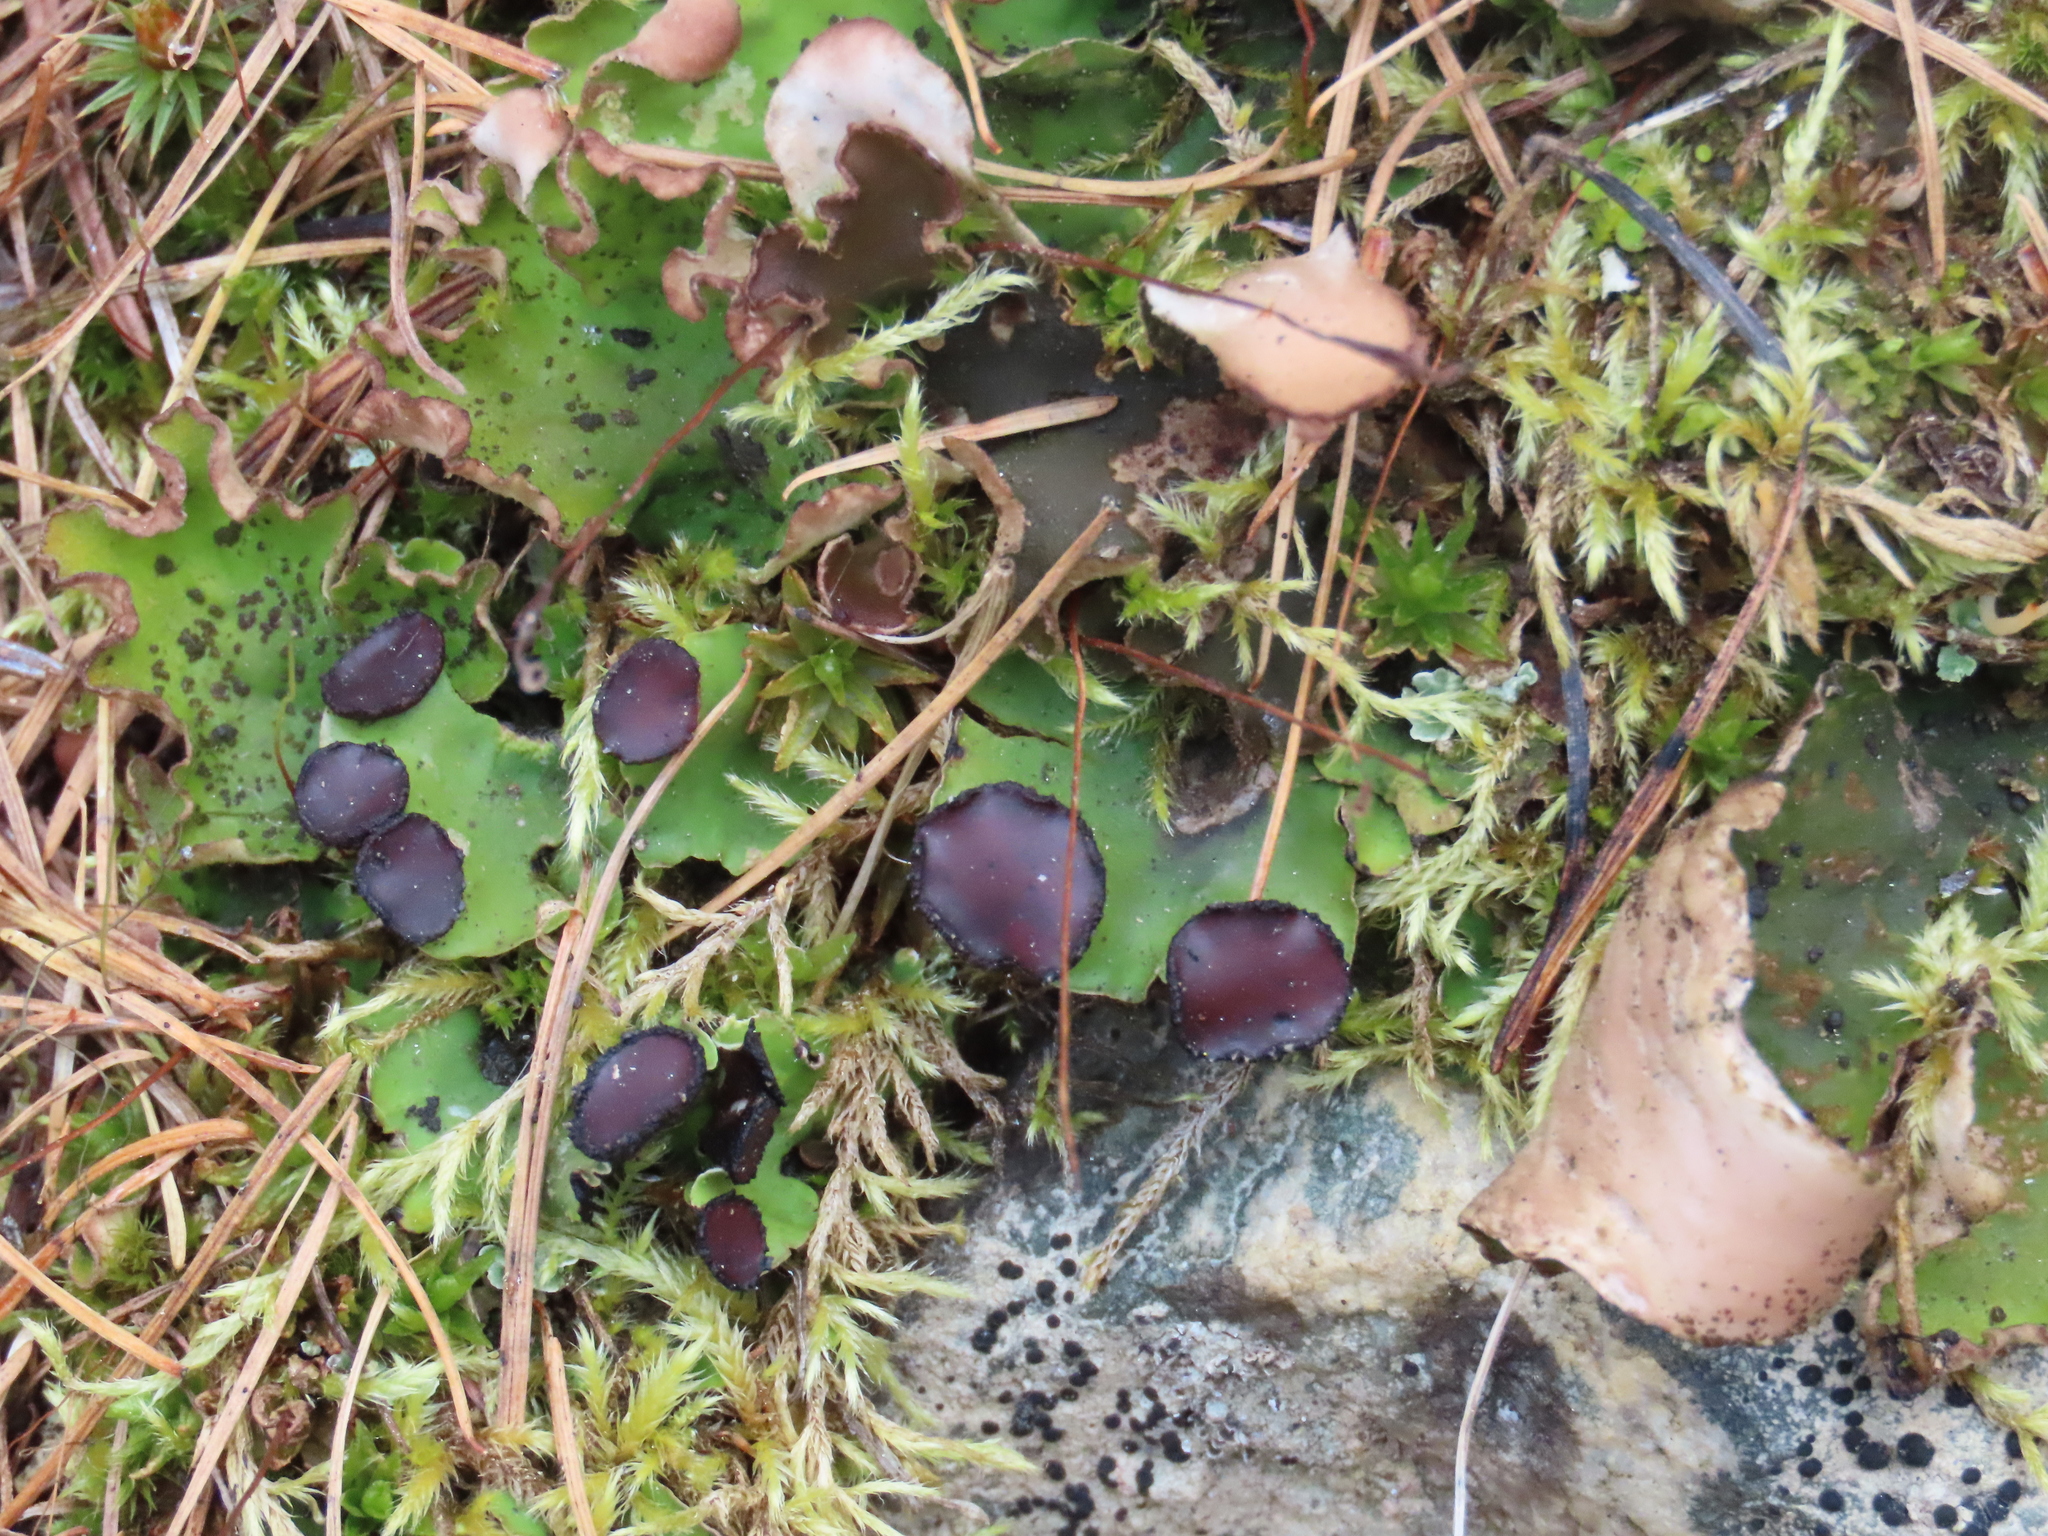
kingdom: Fungi
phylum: Ascomycota
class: Lecanoromycetes
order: Peltigerales
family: Peltigeraceae
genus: Peltigera
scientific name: Peltigera venosa
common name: Pixie gowns lichen
